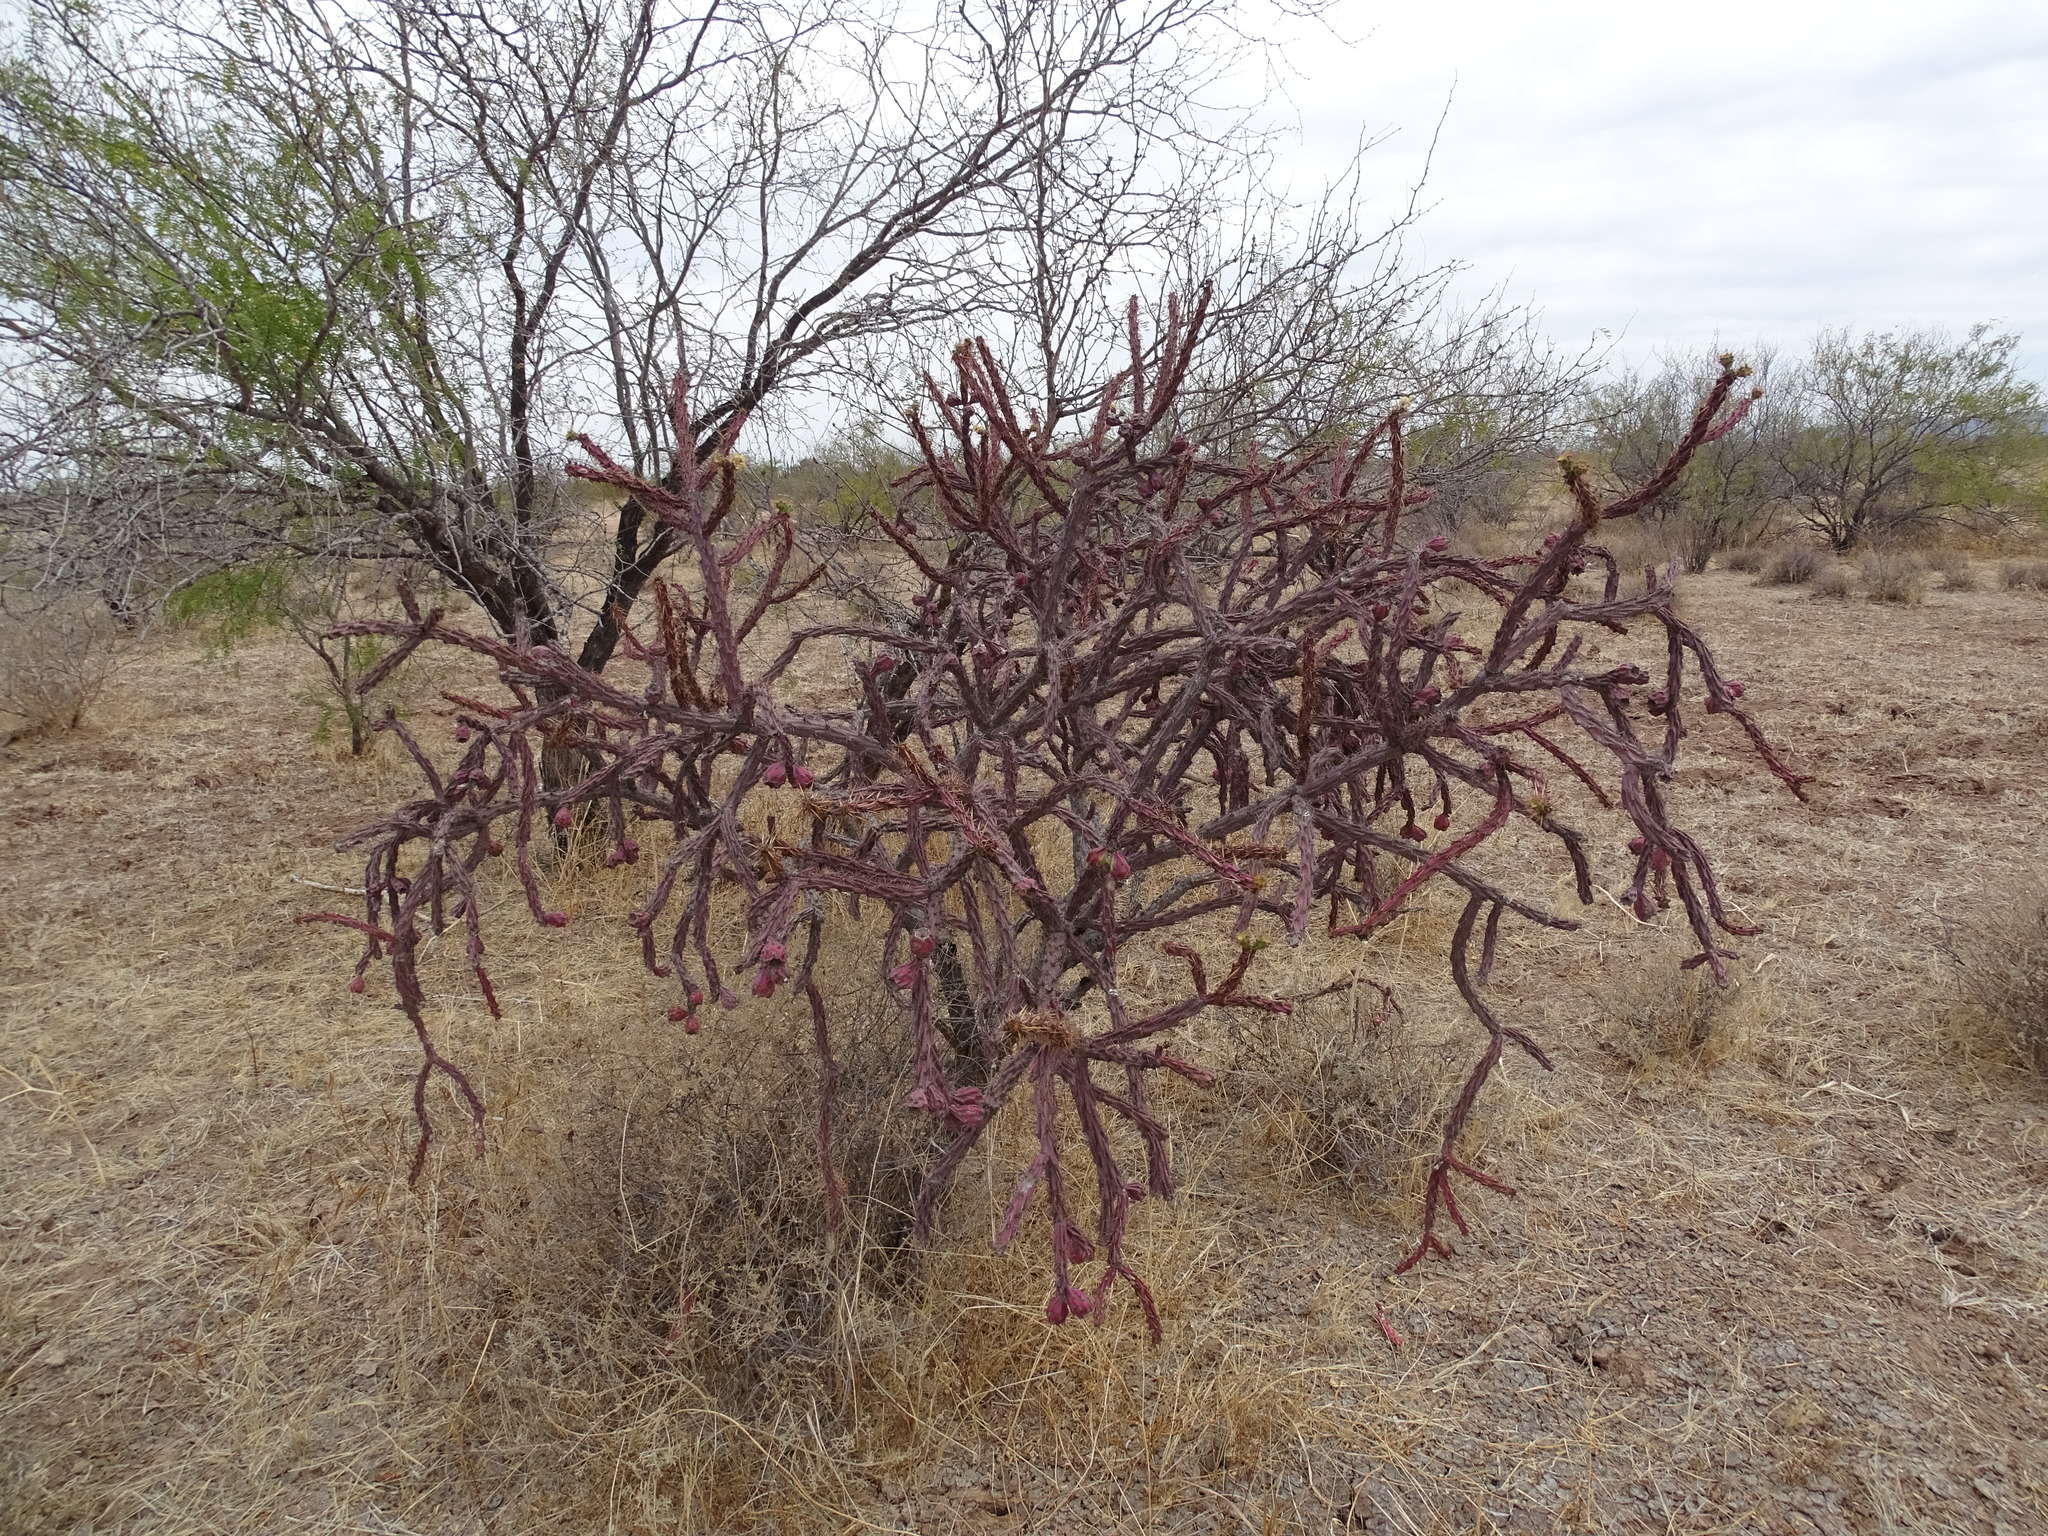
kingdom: Plantae
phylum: Tracheophyta
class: Magnoliopsida
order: Caryophyllales
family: Cactaceae
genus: Cylindropuntia
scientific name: Cylindropuntia thurberi
